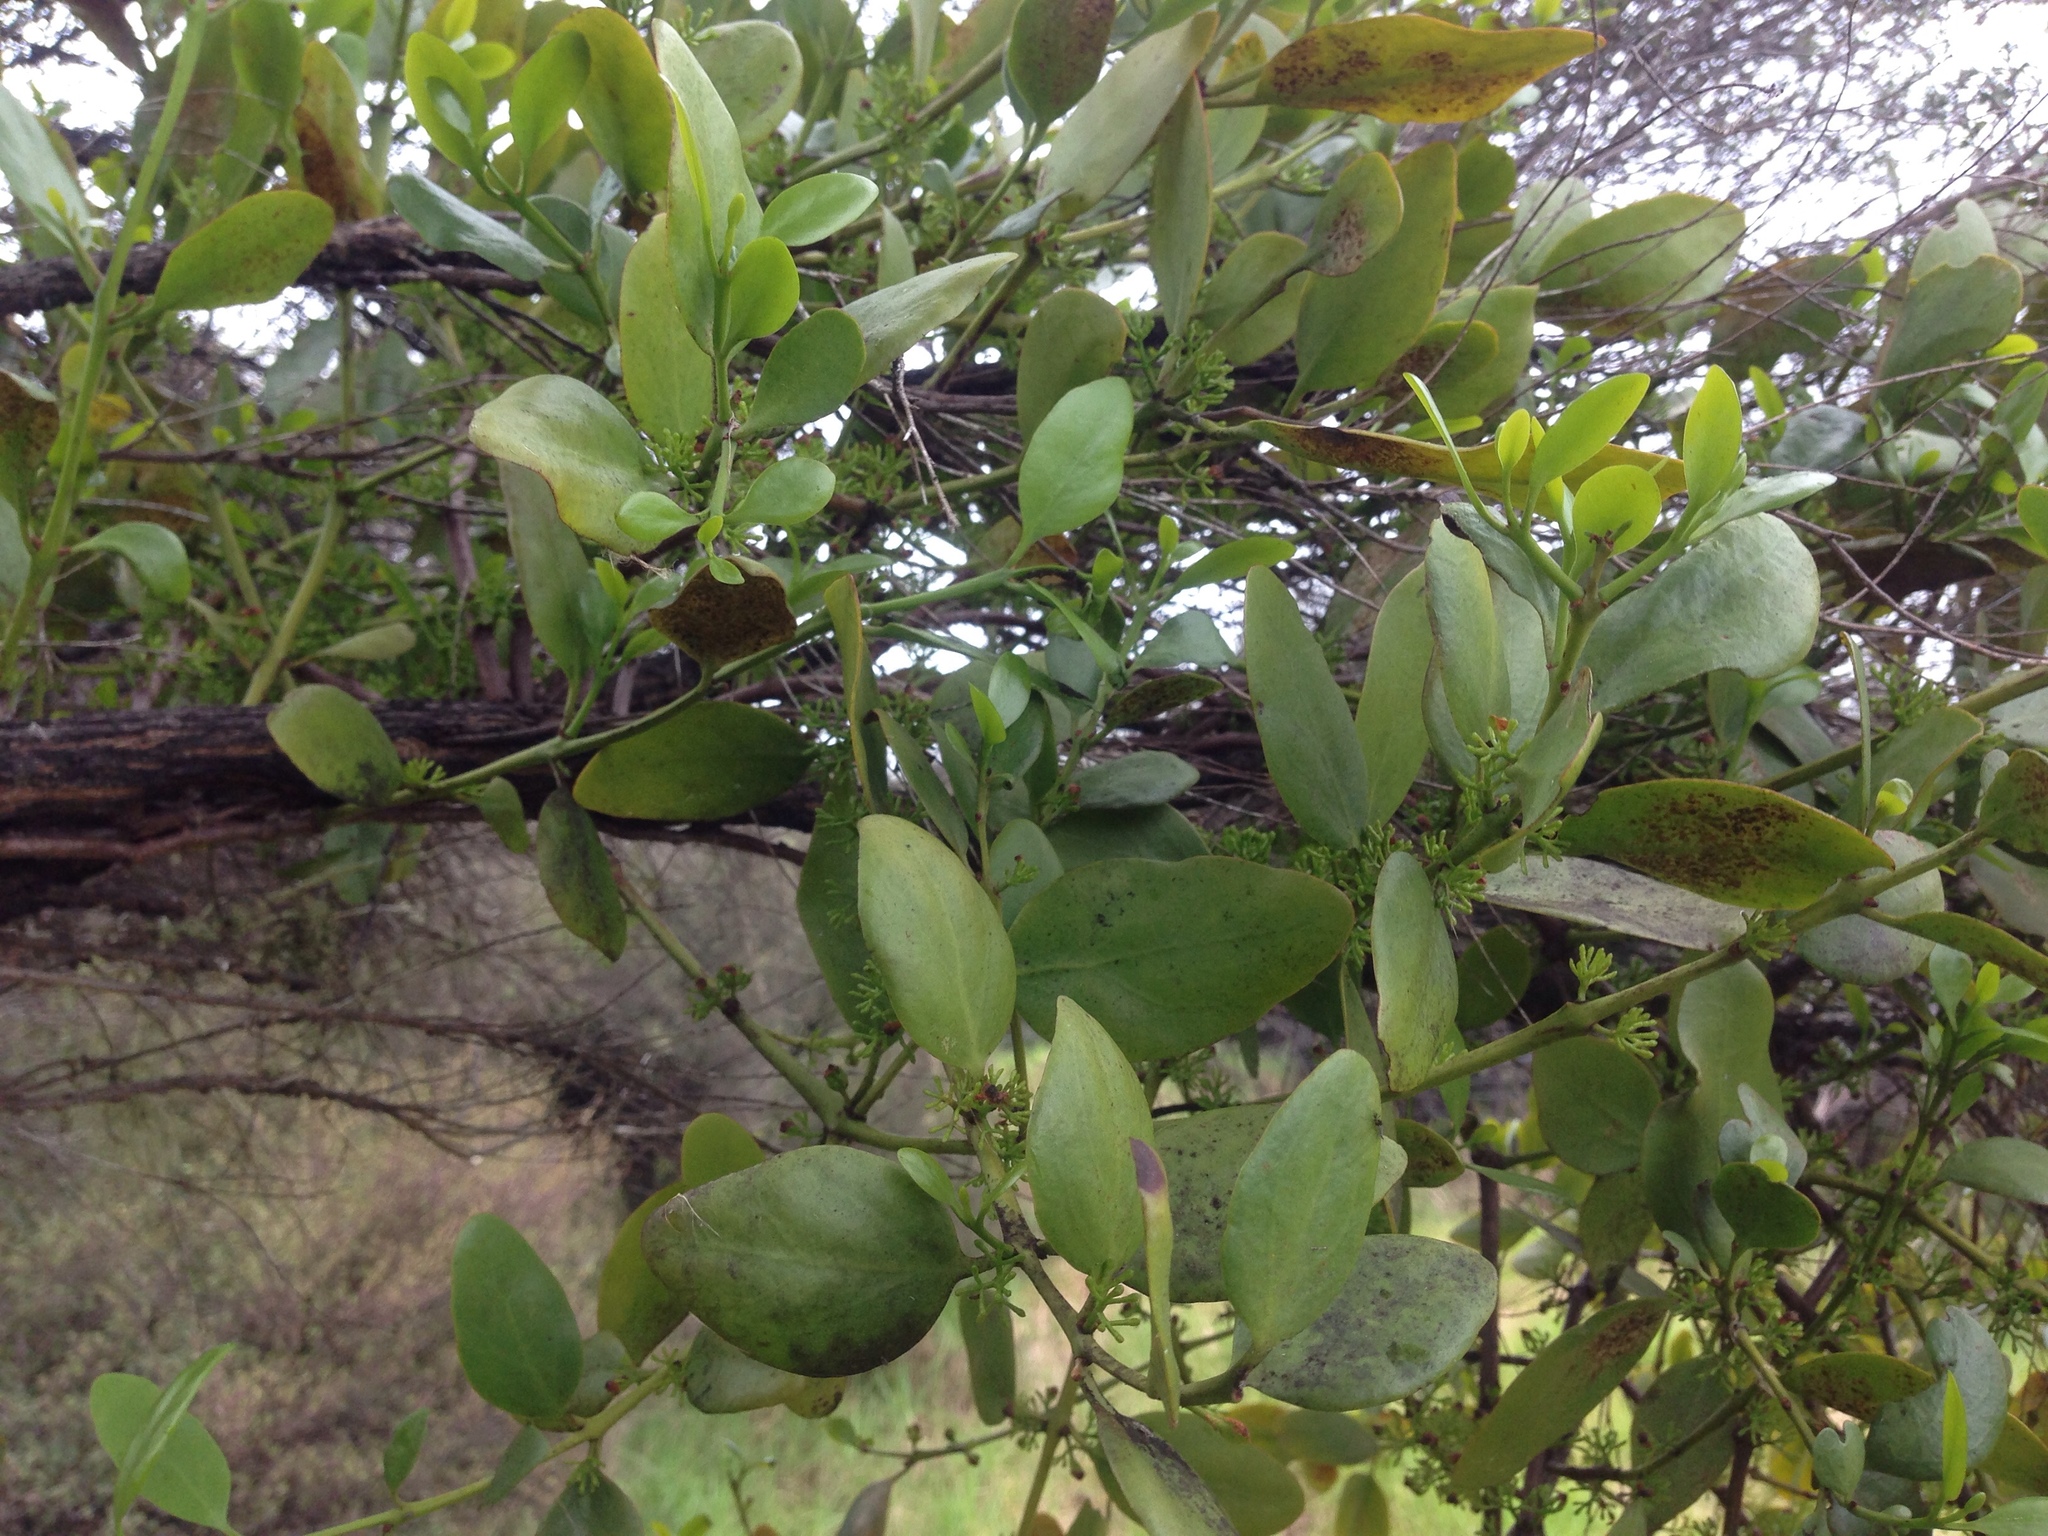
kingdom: Plantae
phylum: Tracheophyta
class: Magnoliopsida
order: Santalales
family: Loranthaceae
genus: Ileostylus
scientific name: Ileostylus micranthus
